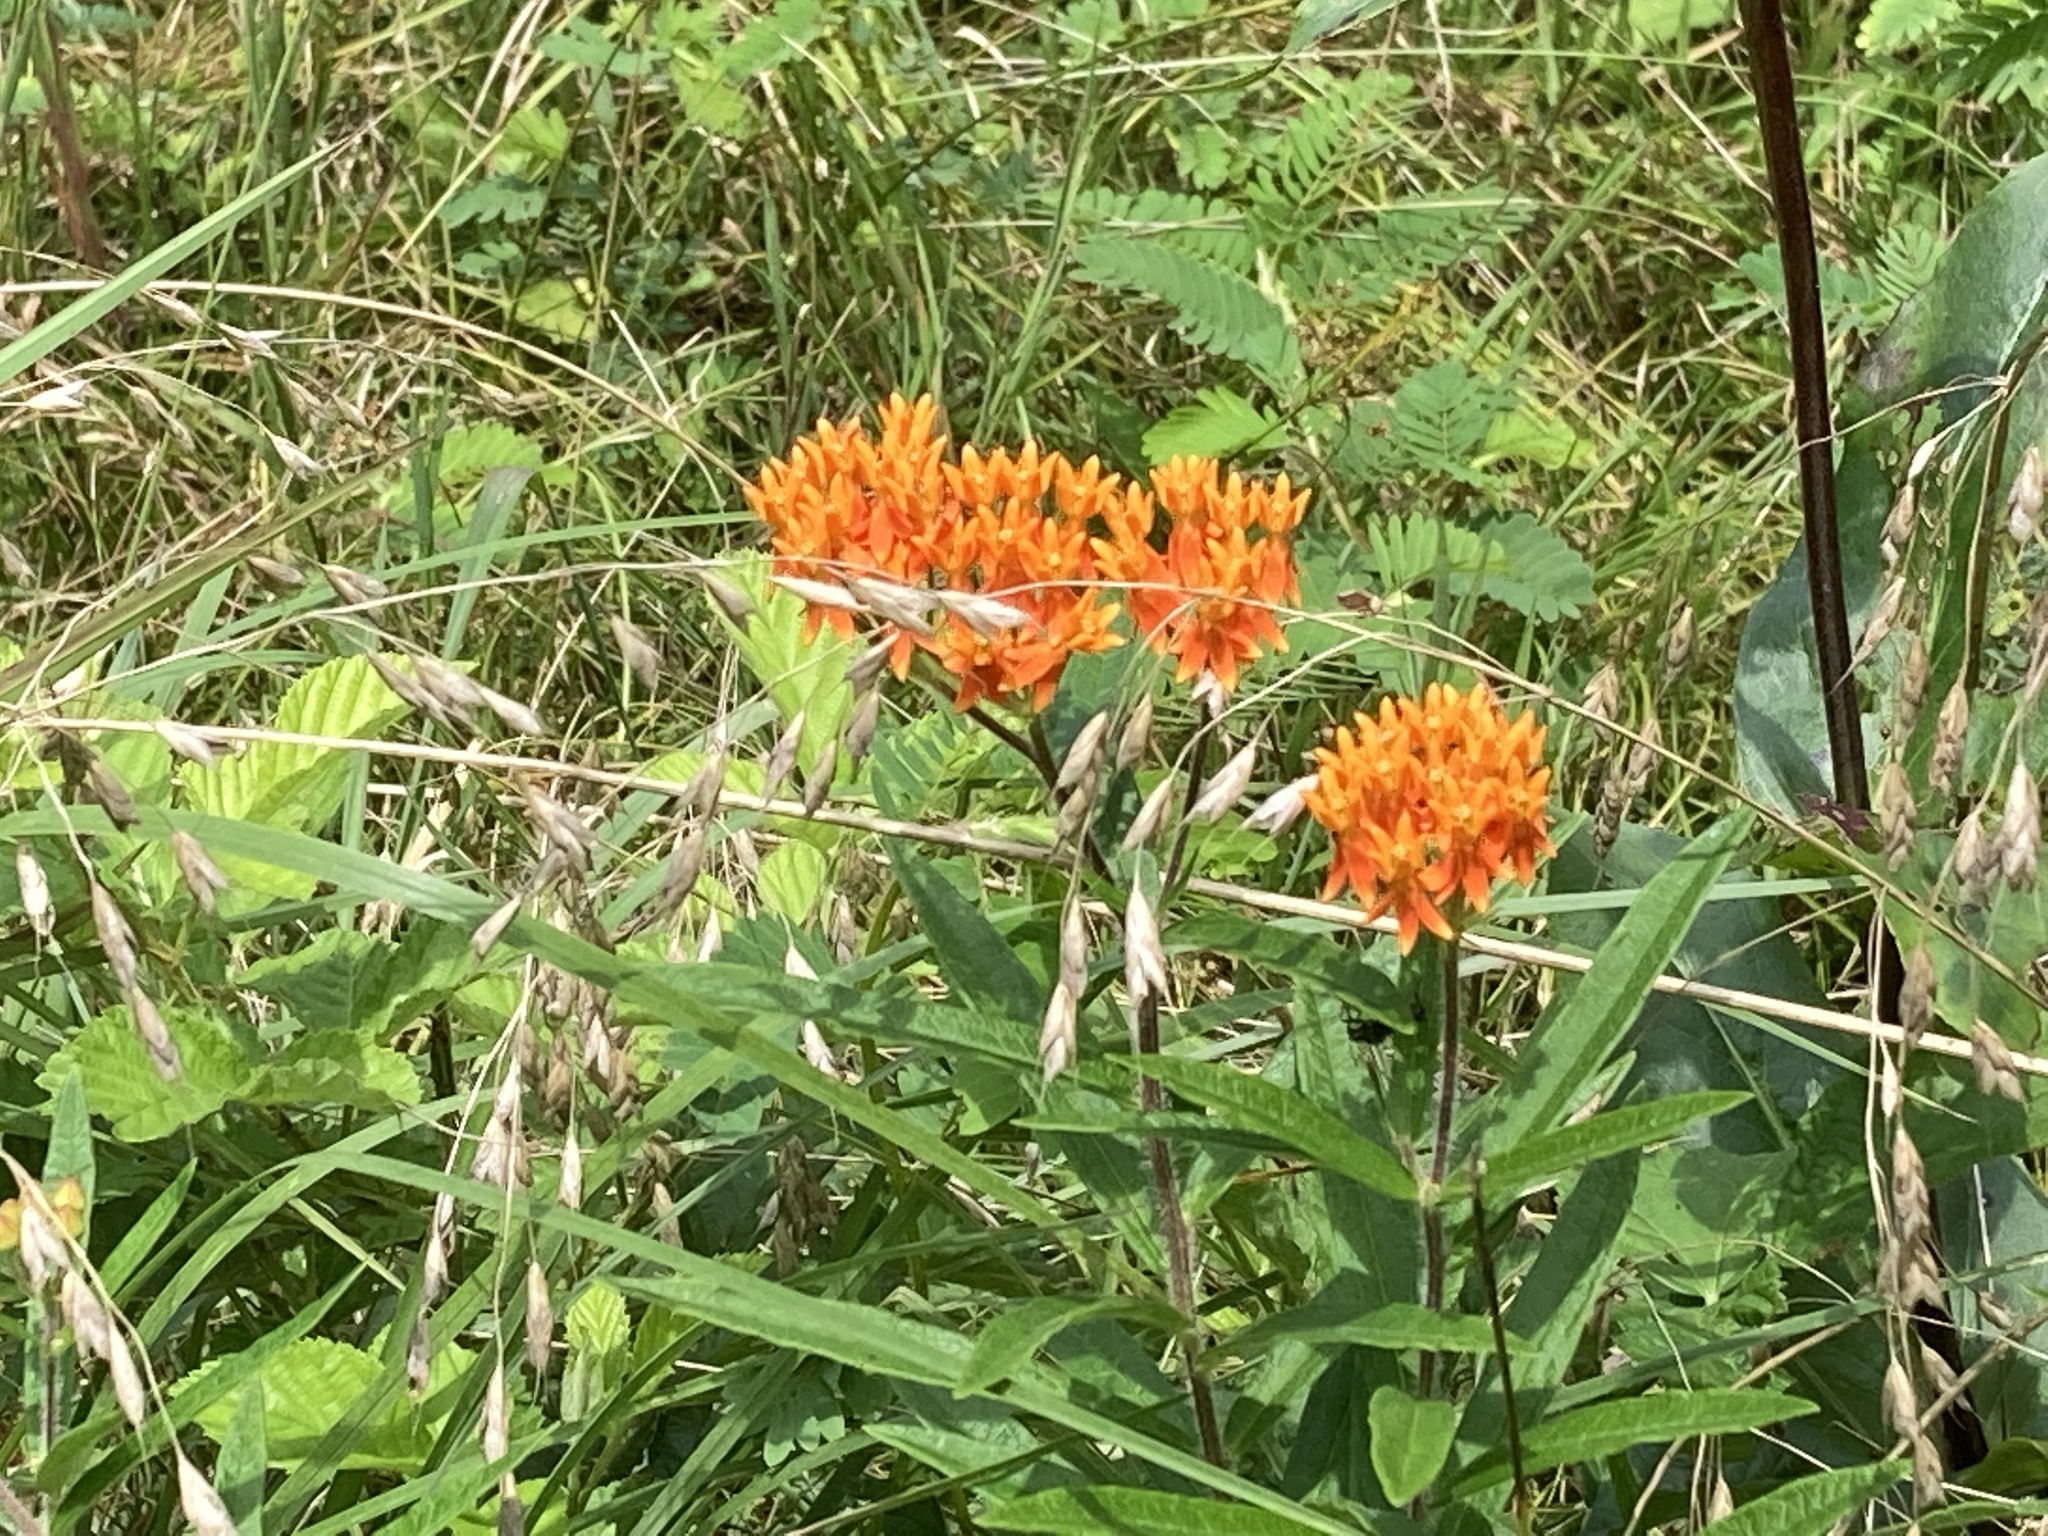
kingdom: Plantae
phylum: Tracheophyta
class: Magnoliopsida
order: Gentianales
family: Apocynaceae
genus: Asclepias
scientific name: Asclepias tuberosa
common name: Butterfly milkweed
